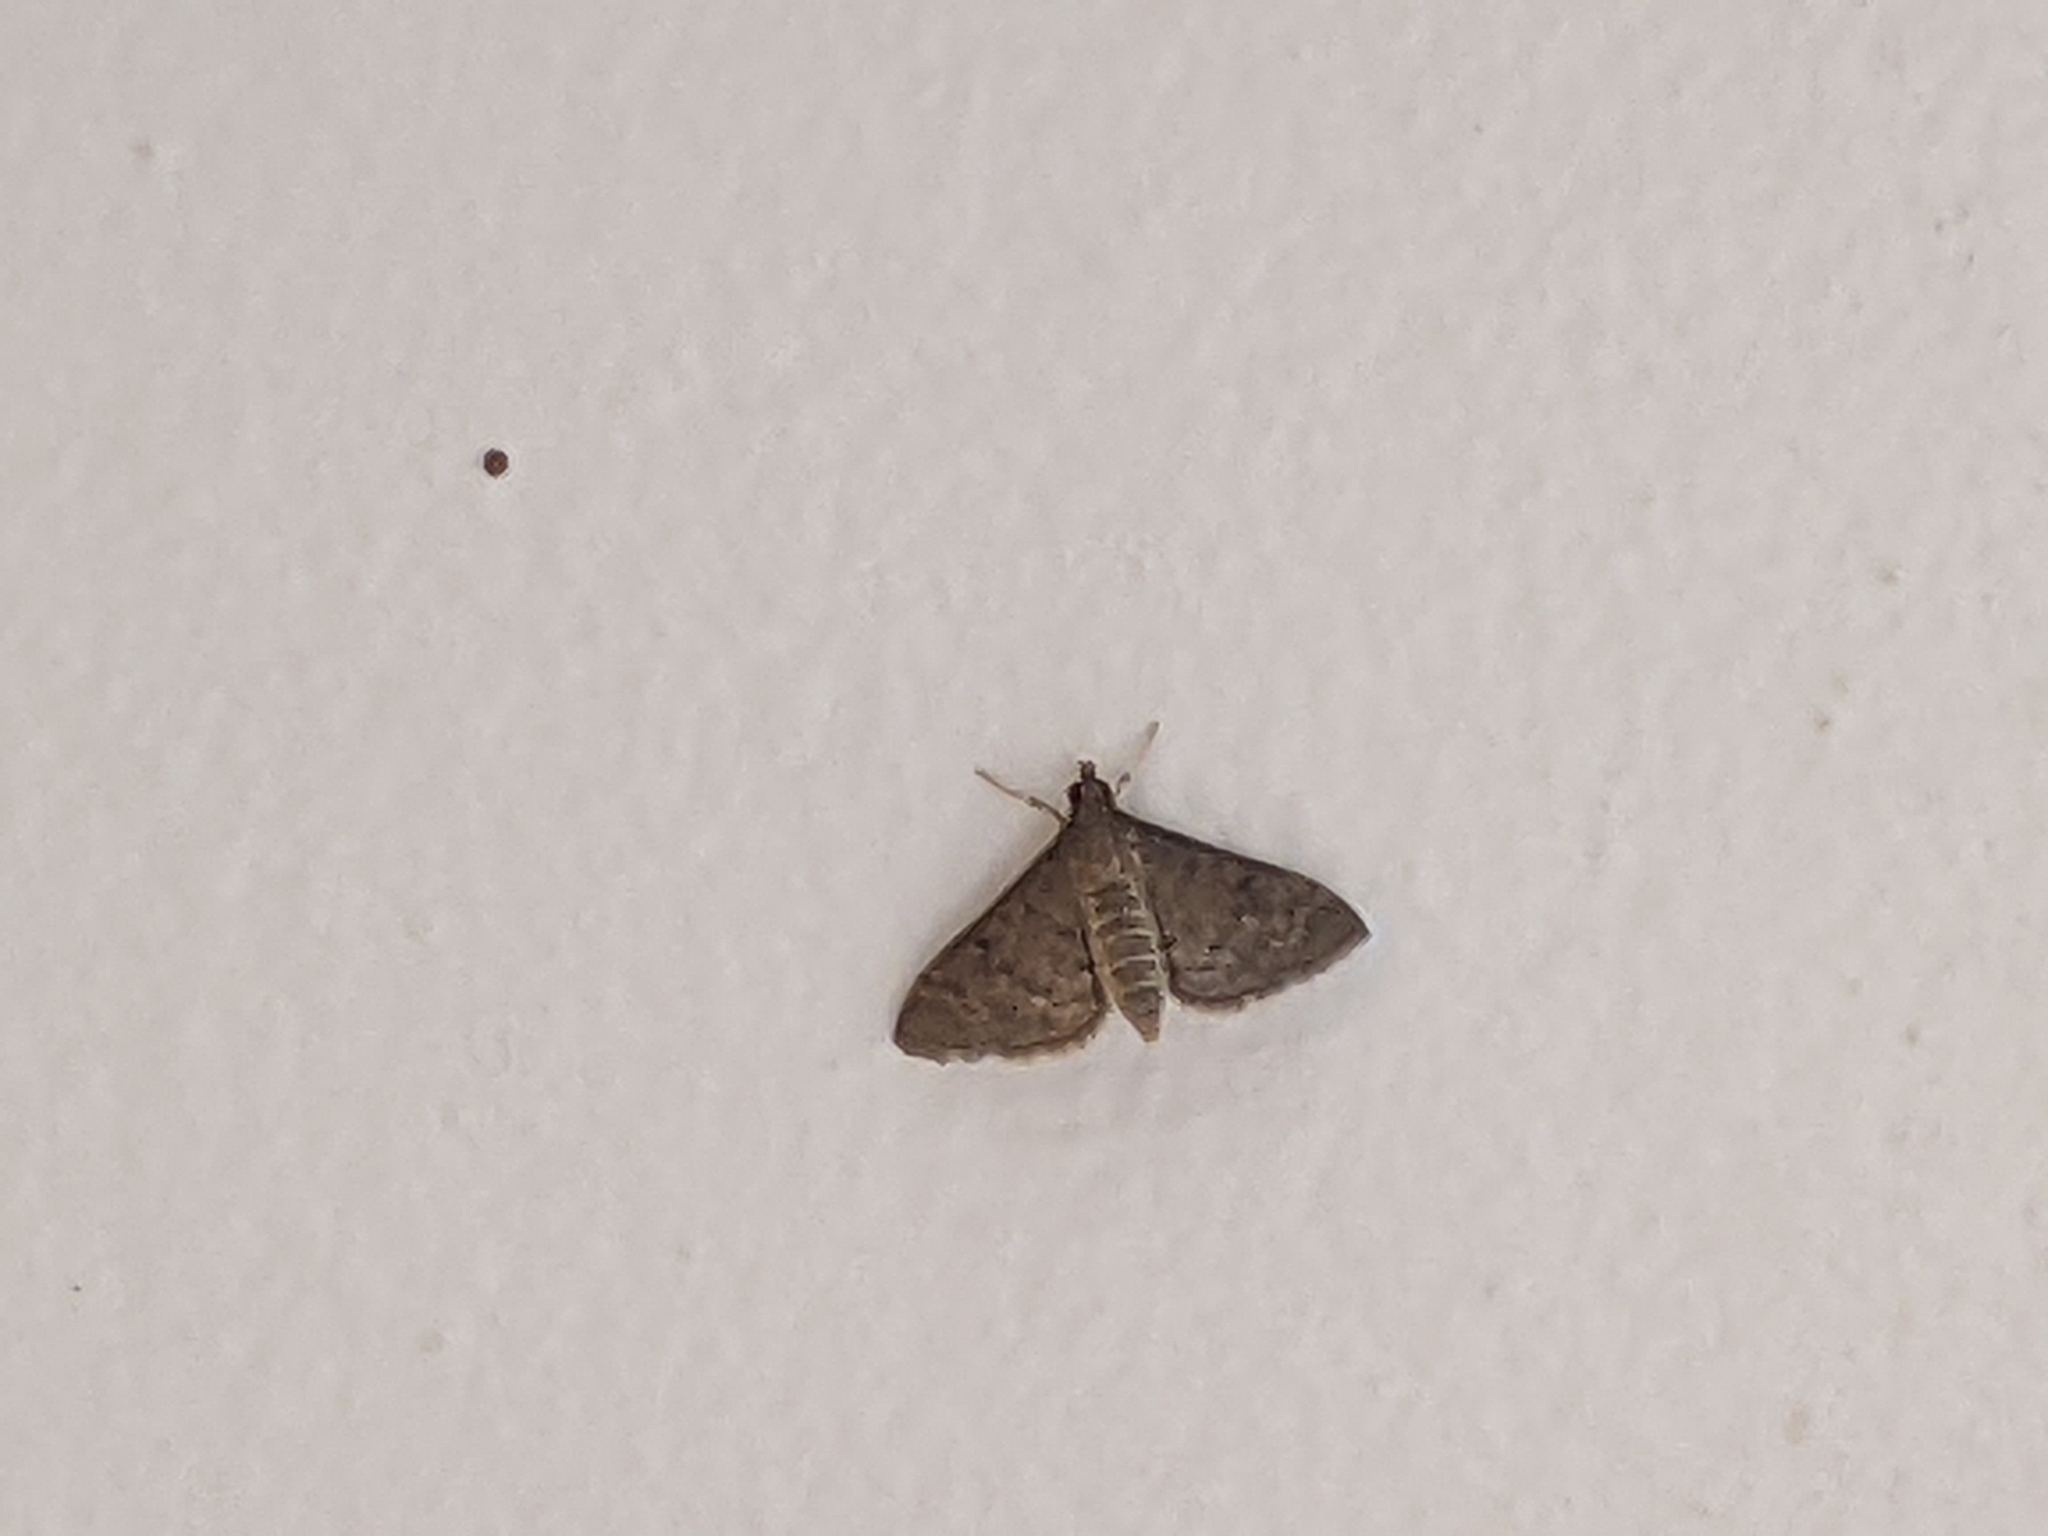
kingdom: Animalia
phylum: Arthropoda
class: Insecta
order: Lepidoptera
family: Crambidae
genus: Herpetogramma
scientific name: Herpetogramma phaeopteralis
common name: Dusky herpetogramma moth
